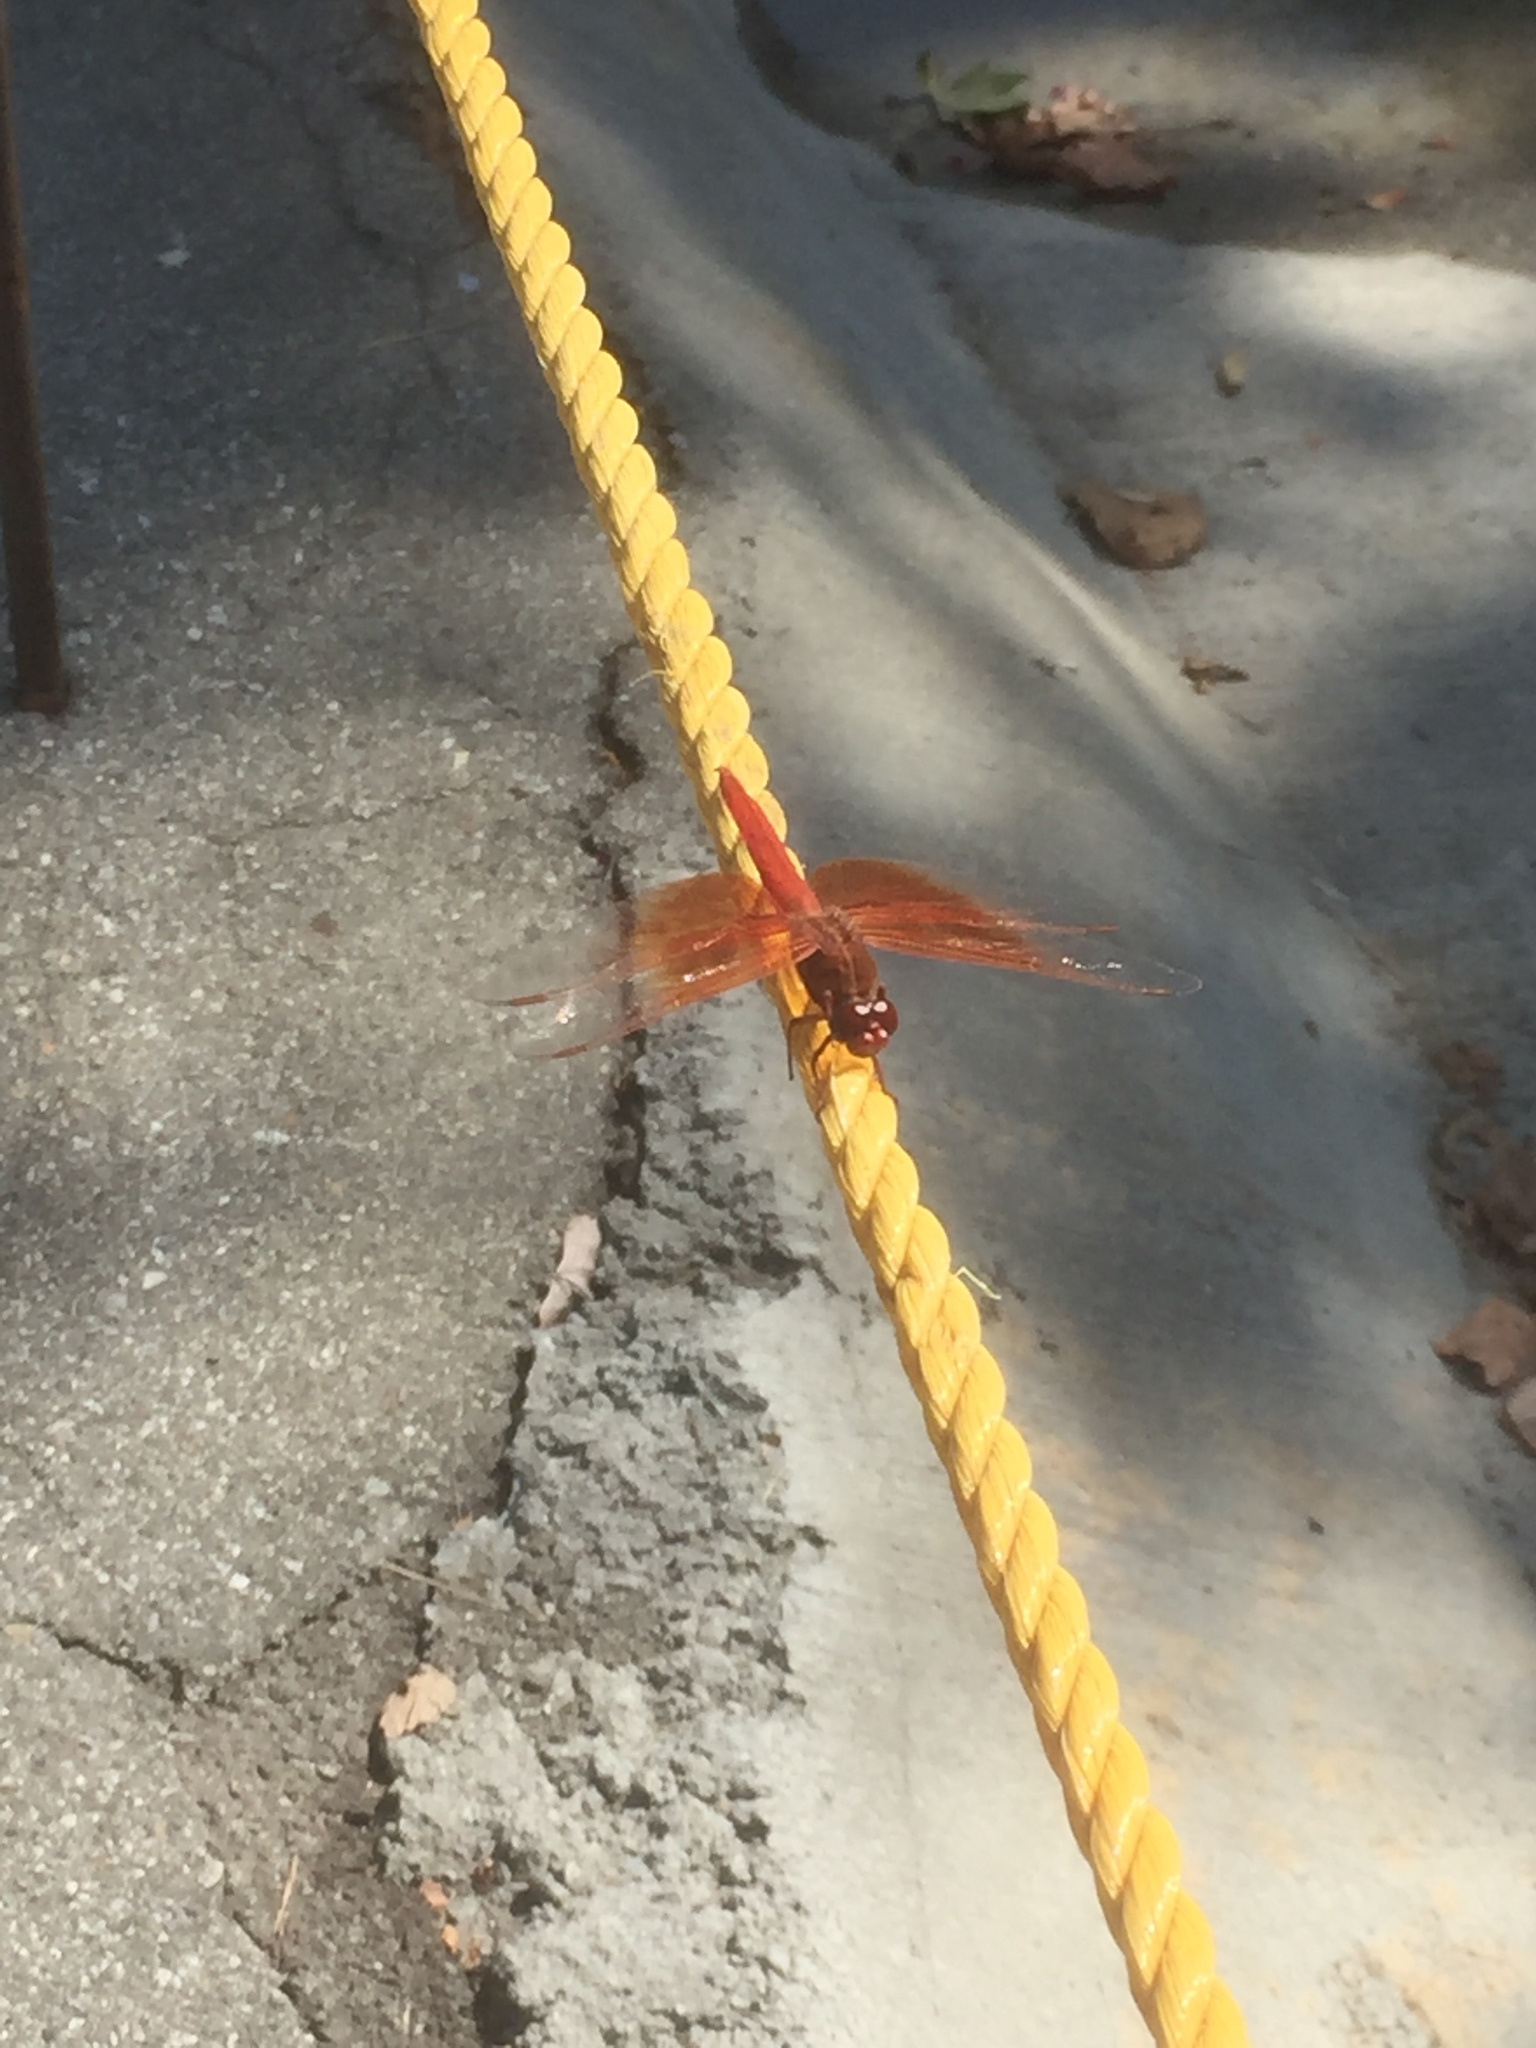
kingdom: Animalia
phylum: Arthropoda
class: Insecta
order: Odonata
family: Libellulidae
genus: Libellula
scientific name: Libellula saturata
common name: Flame skimmer
